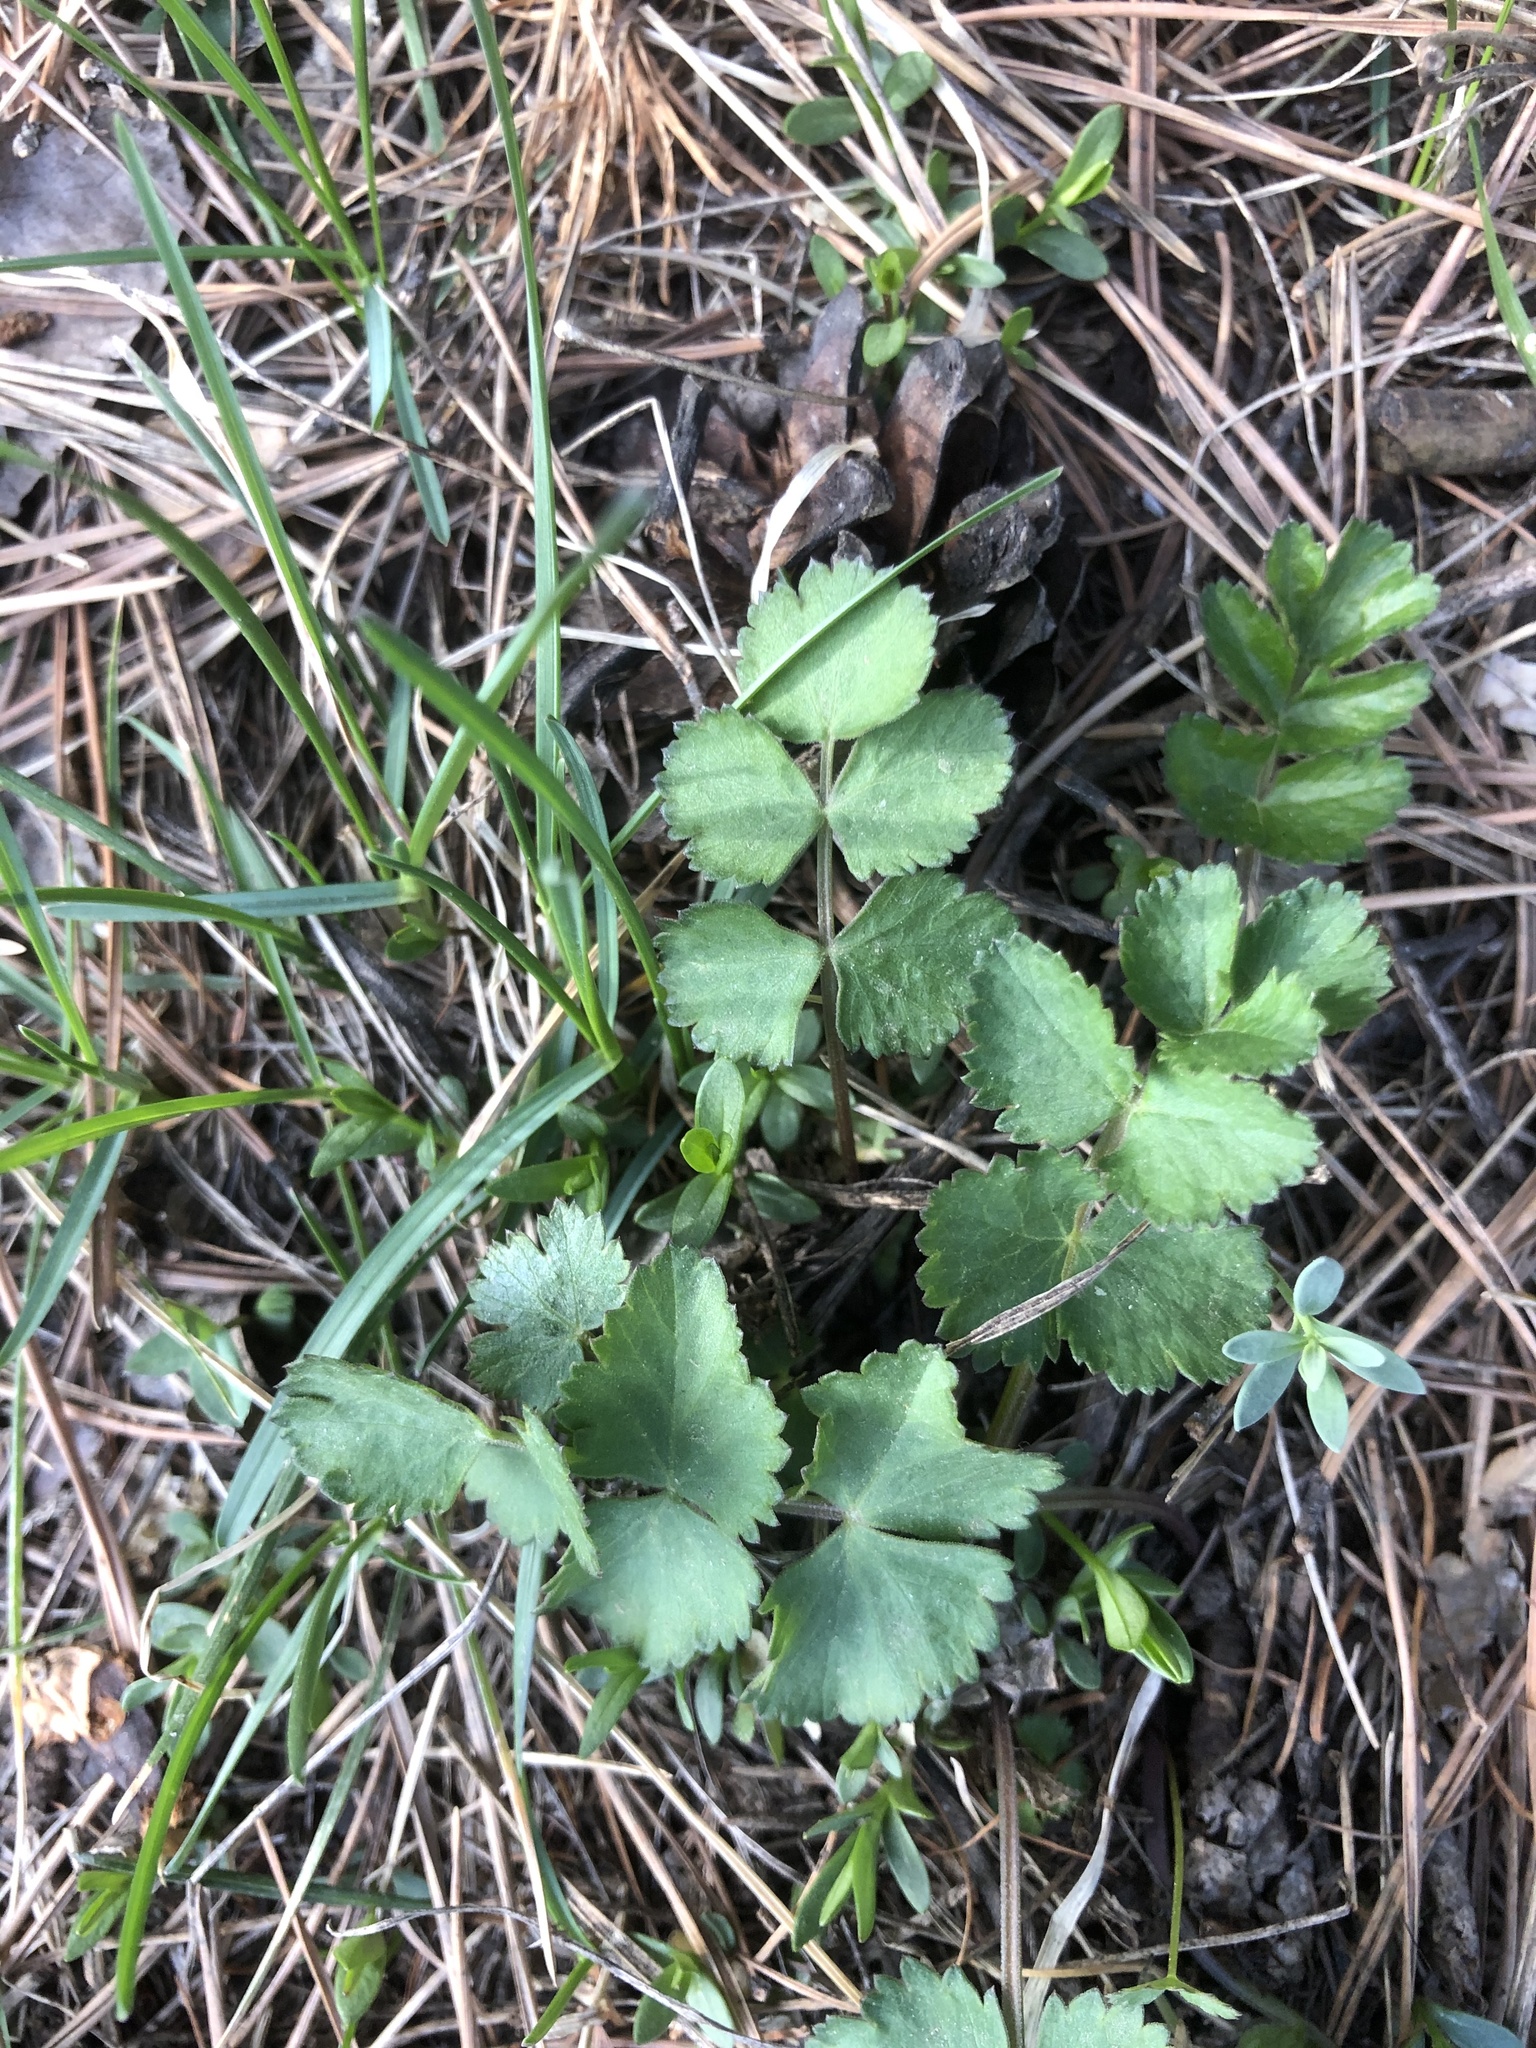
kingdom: Plantae
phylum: Tracheophyta
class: Magnoliopsida
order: Apiales
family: Apiaceae
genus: Pimpinella
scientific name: Pimpinella saxifraga
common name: Burnet-saxifrage
